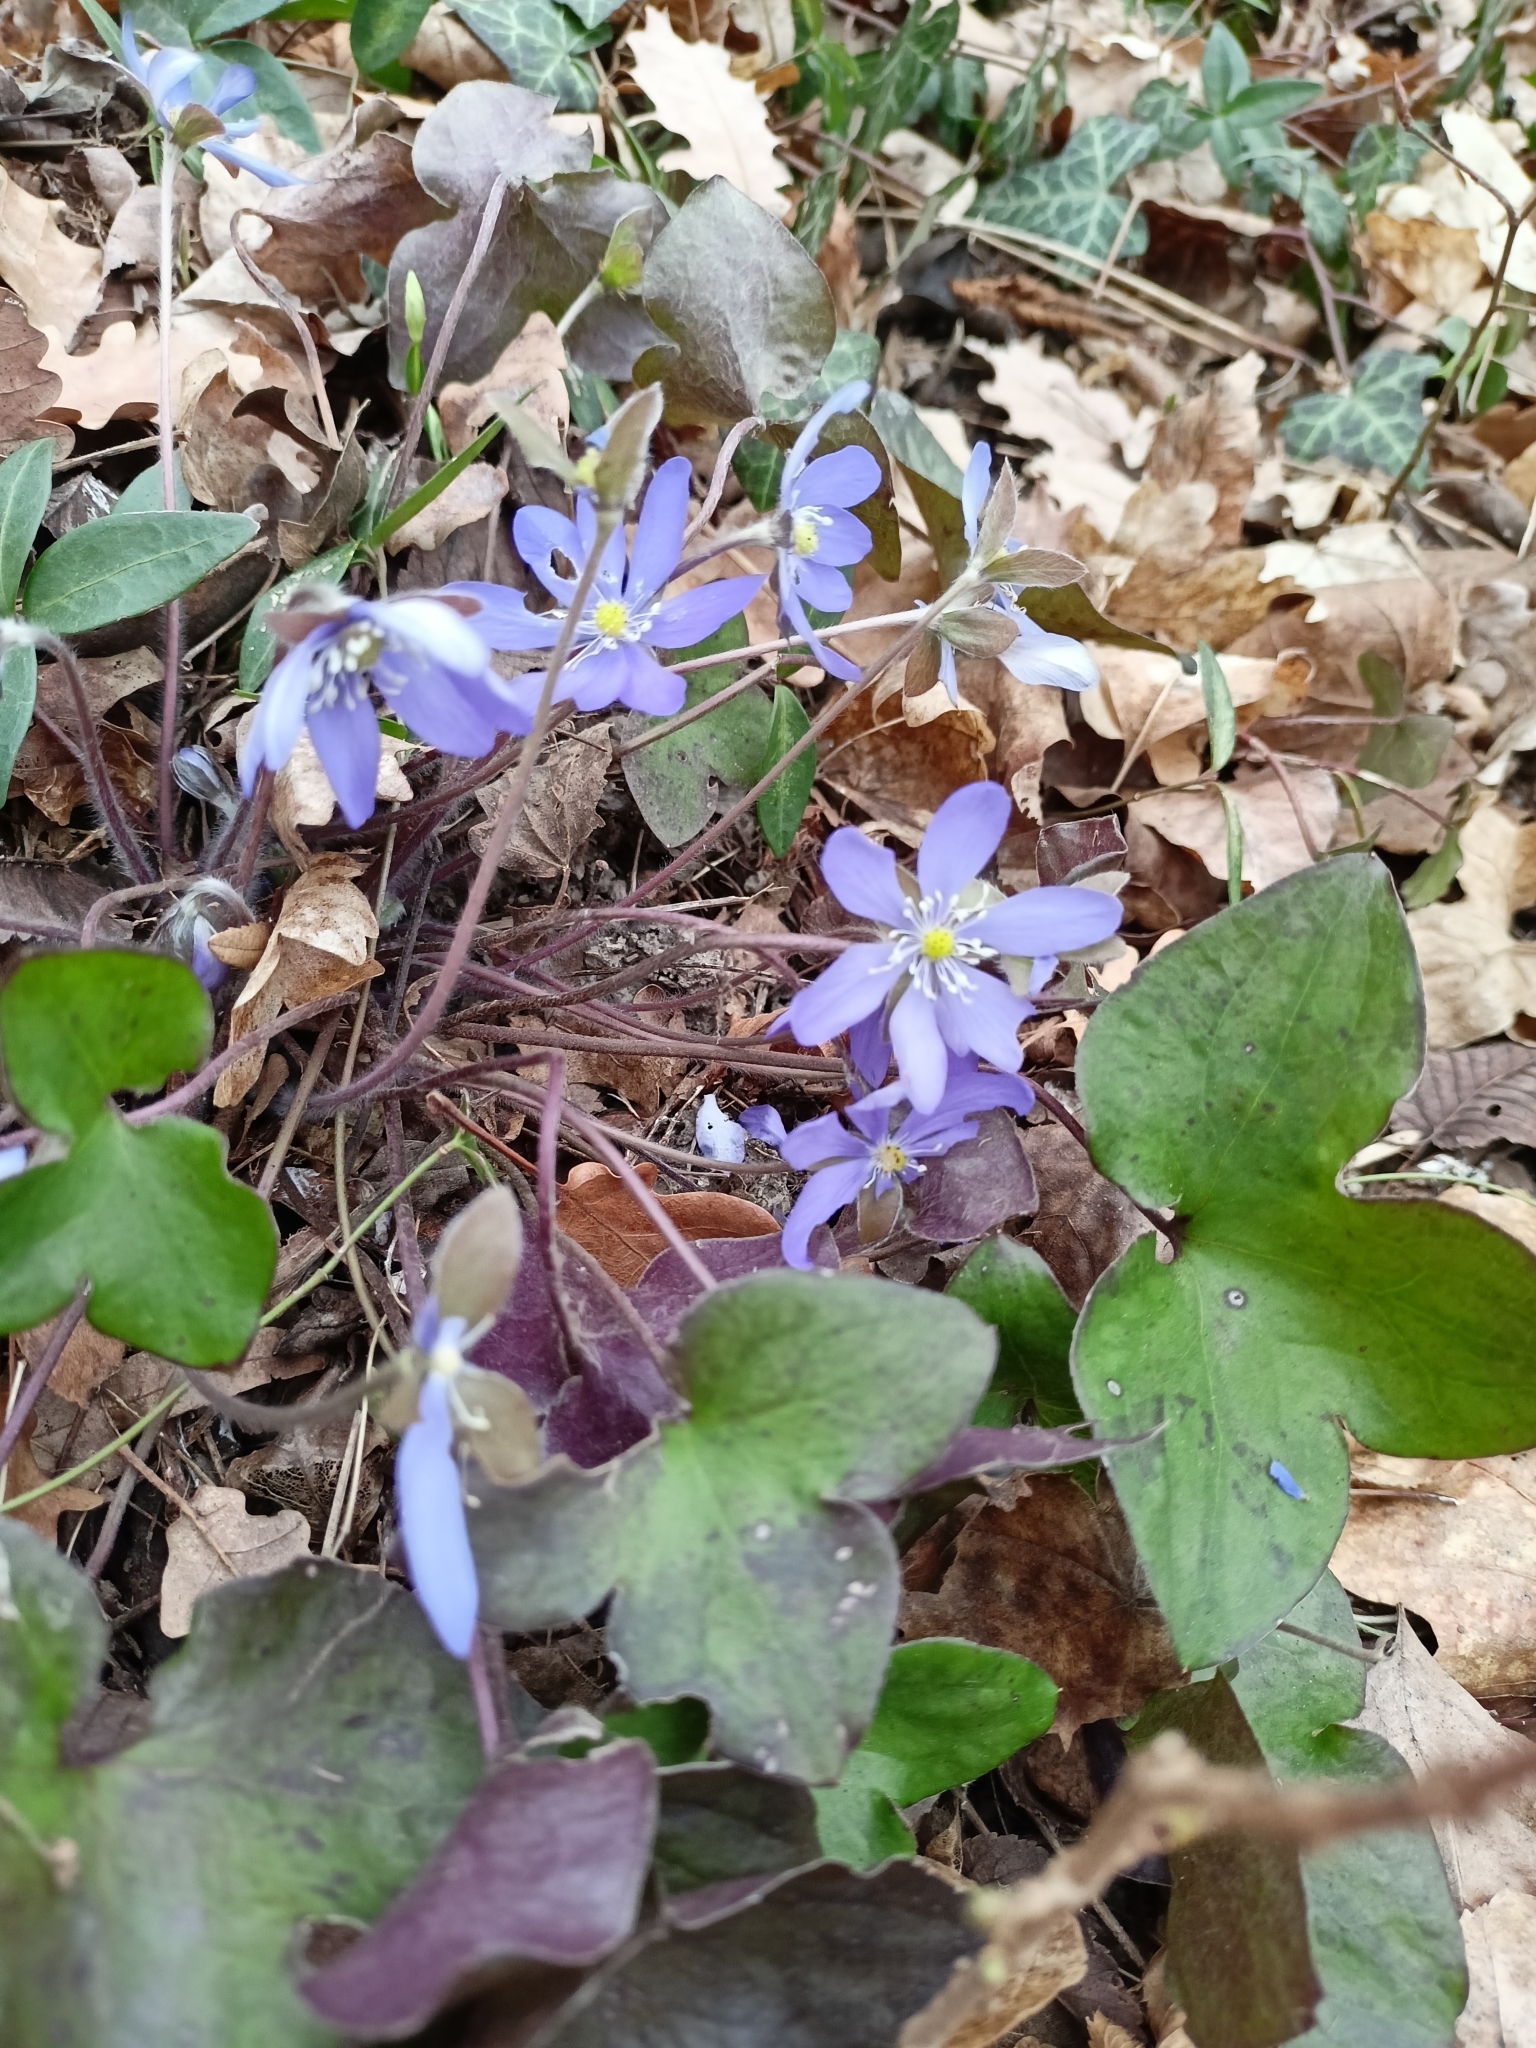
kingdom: Plantae
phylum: Tracheophyta
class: Magnoliopsida
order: Ranunculales
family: Ranunculaceae
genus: Hepatica
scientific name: Hepatica nobilis
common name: Liverleaf
